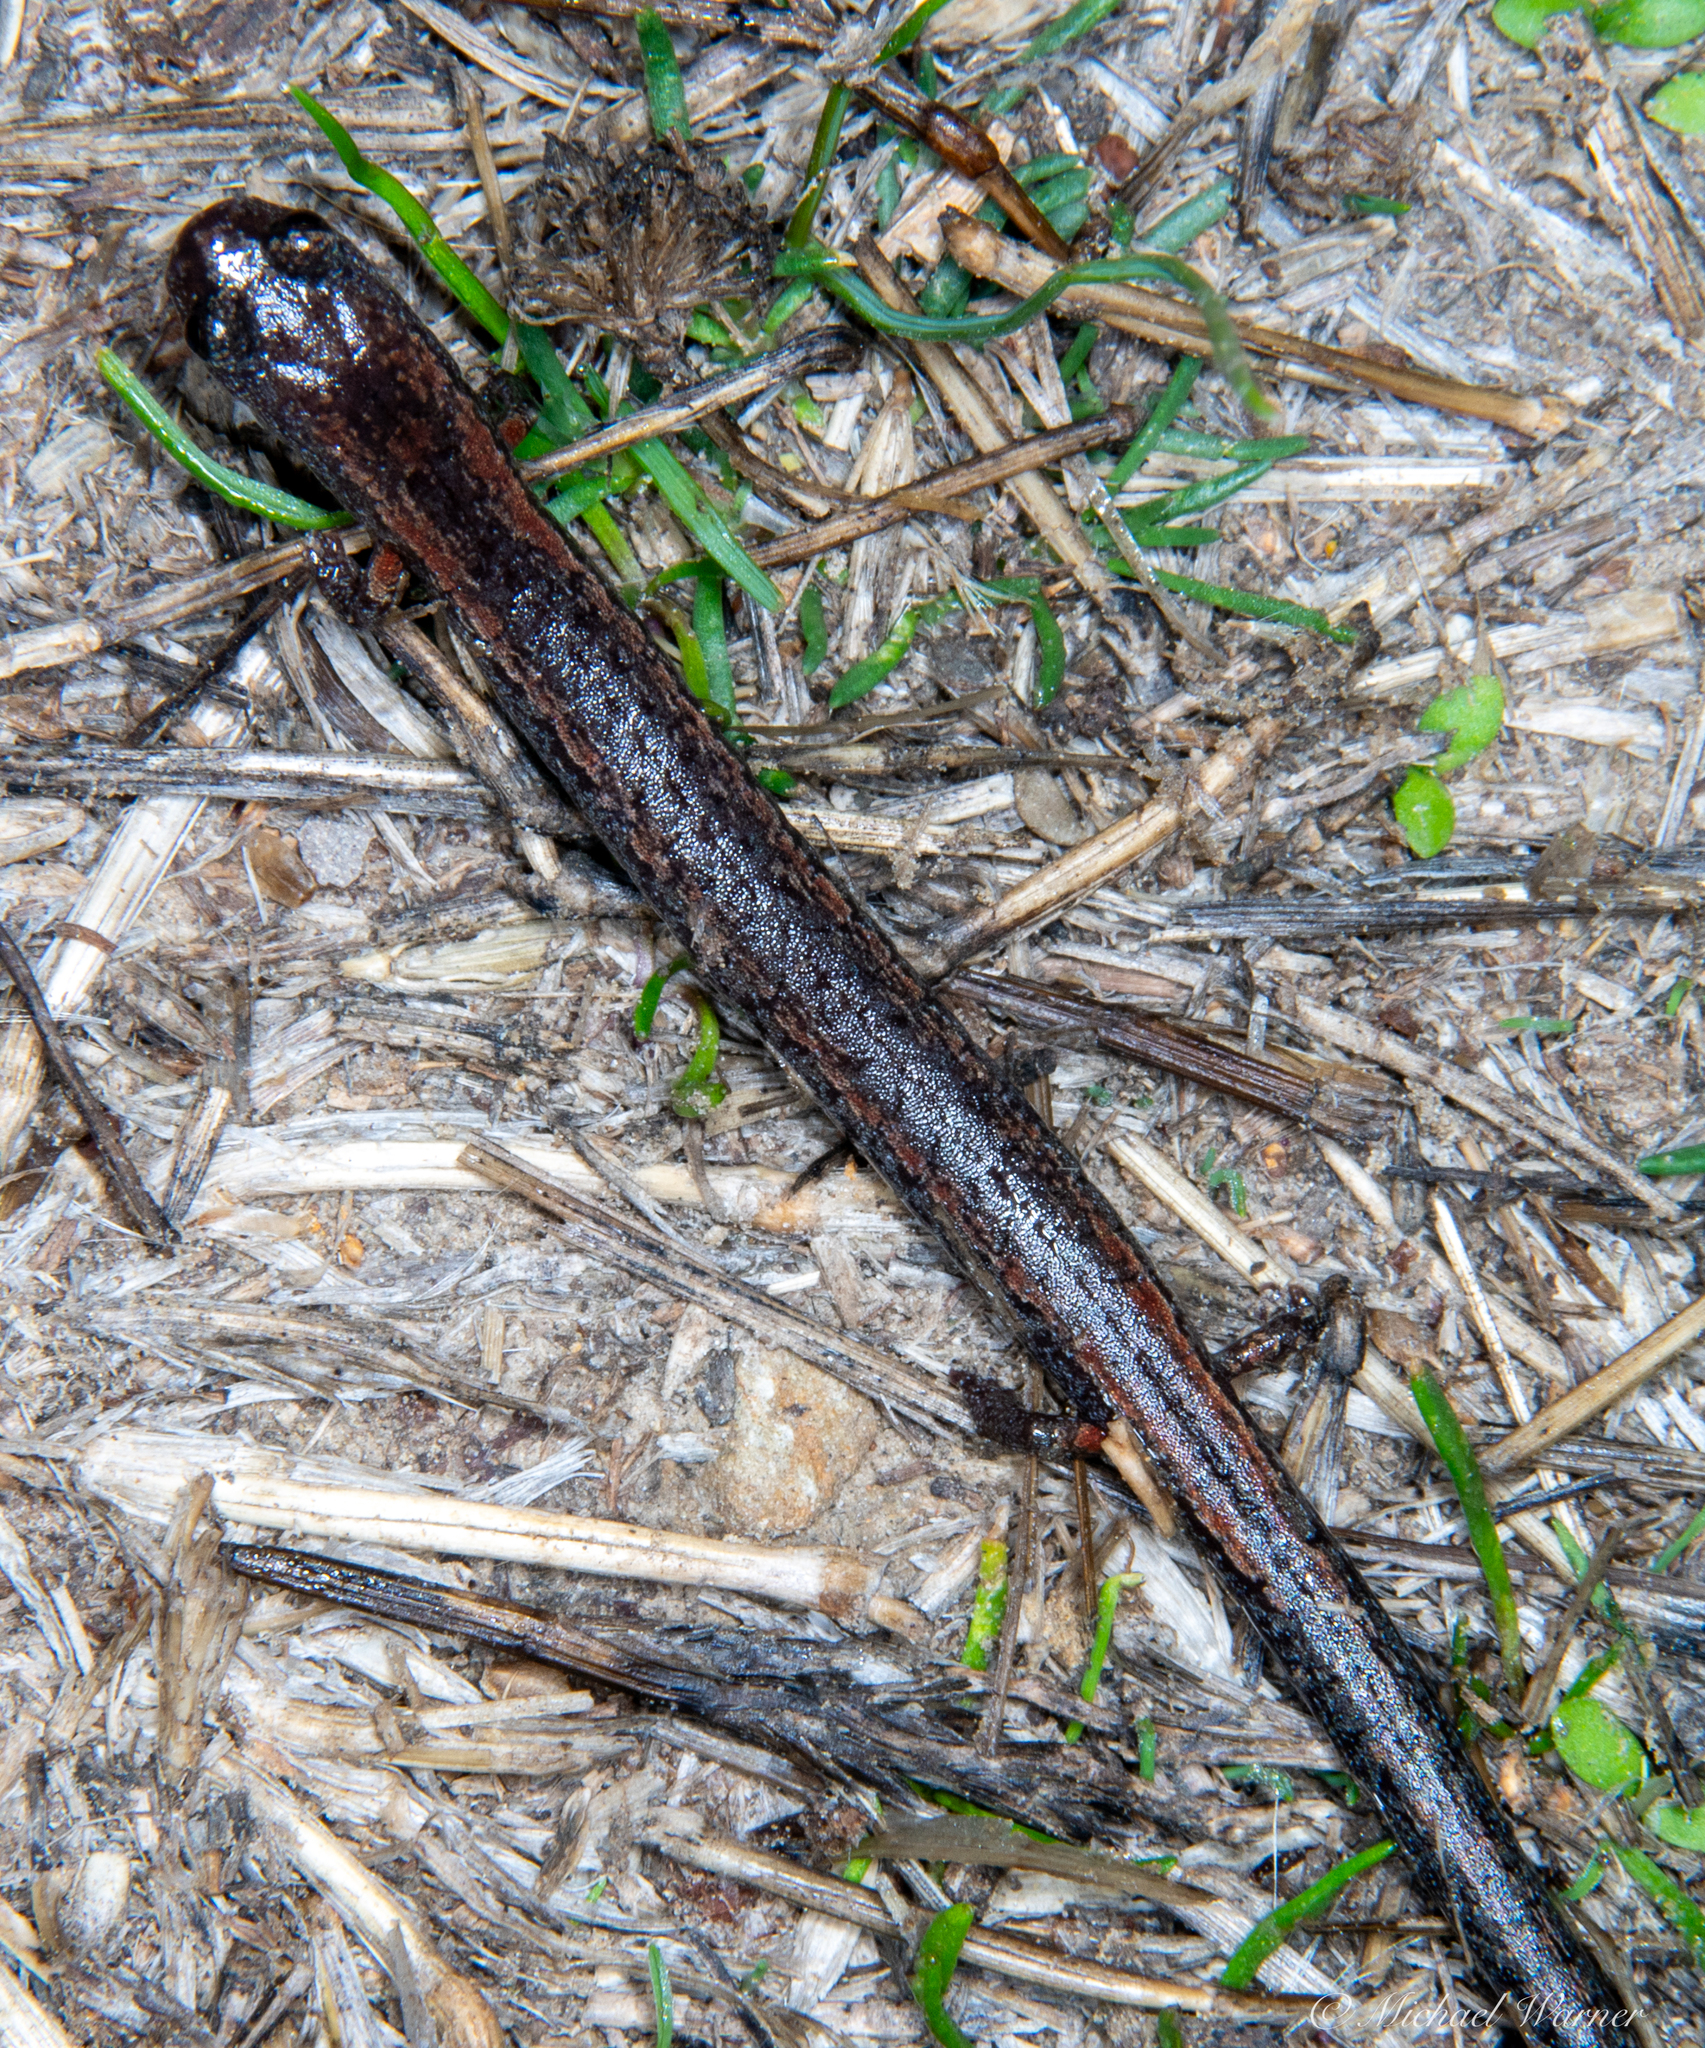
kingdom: Animalia
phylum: Chordata
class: Amphibia
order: Caudata
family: Plethodontidae
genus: Batrachoseps
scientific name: Batrachoseps attenuatus
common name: California slender salamander
